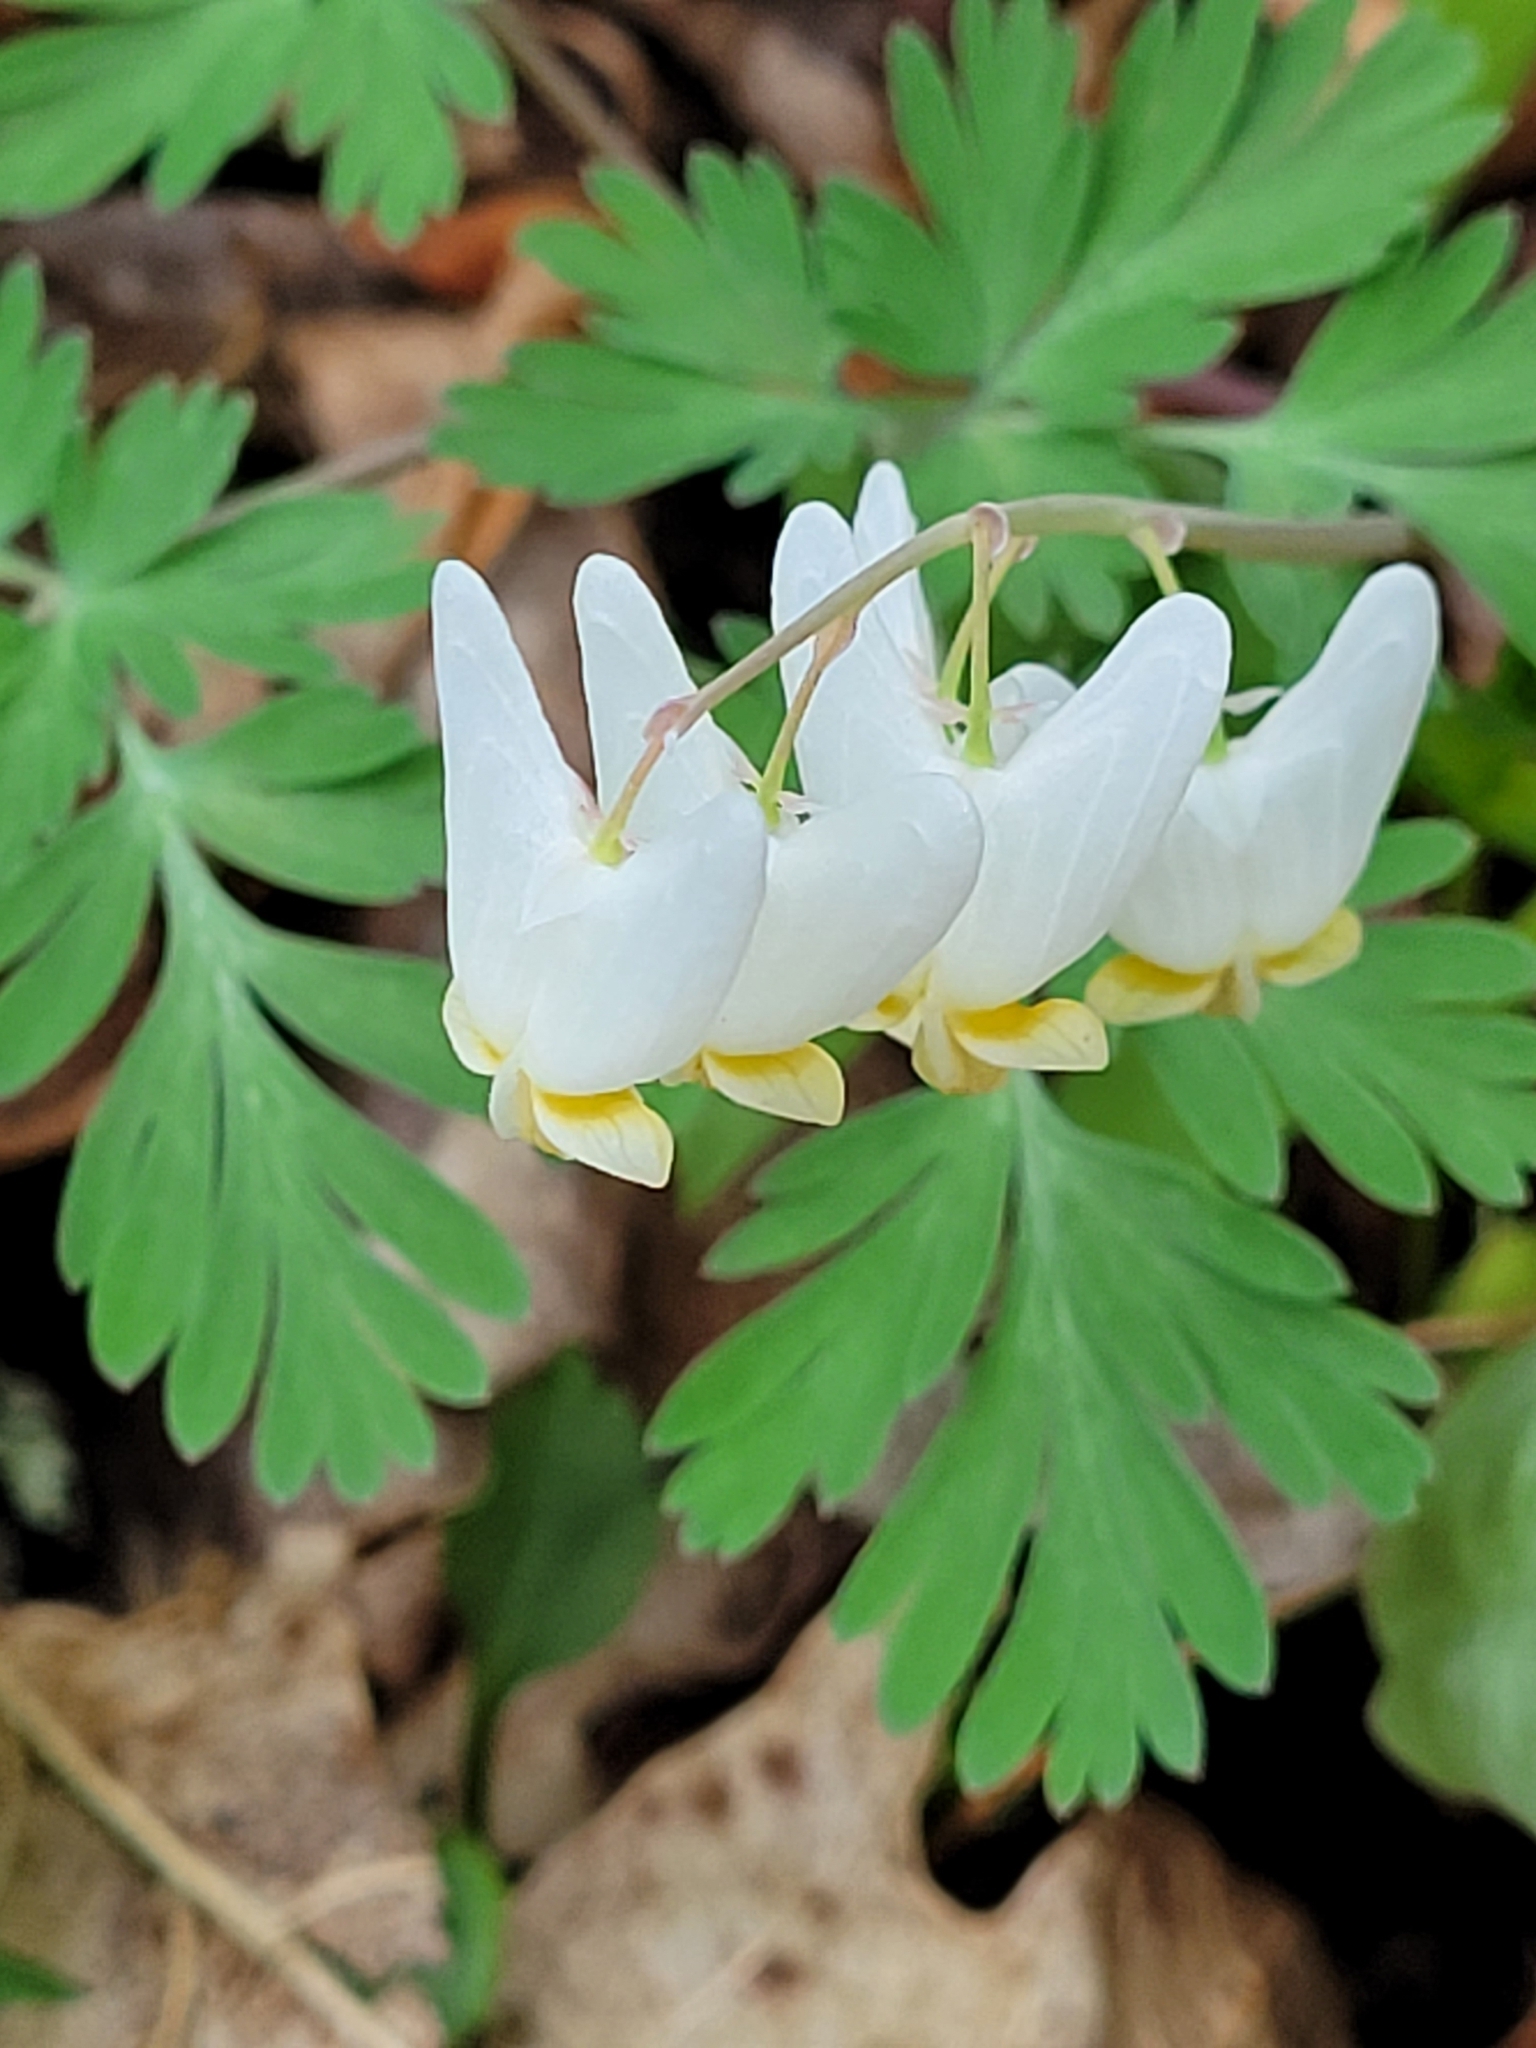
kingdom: Plantae
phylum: Tracheophyta
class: Magnoliopsida
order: Ranunculales
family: Papaveraceae
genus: Dicentra
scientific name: Dicentra cucullaria
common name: Dutchman's breeches
